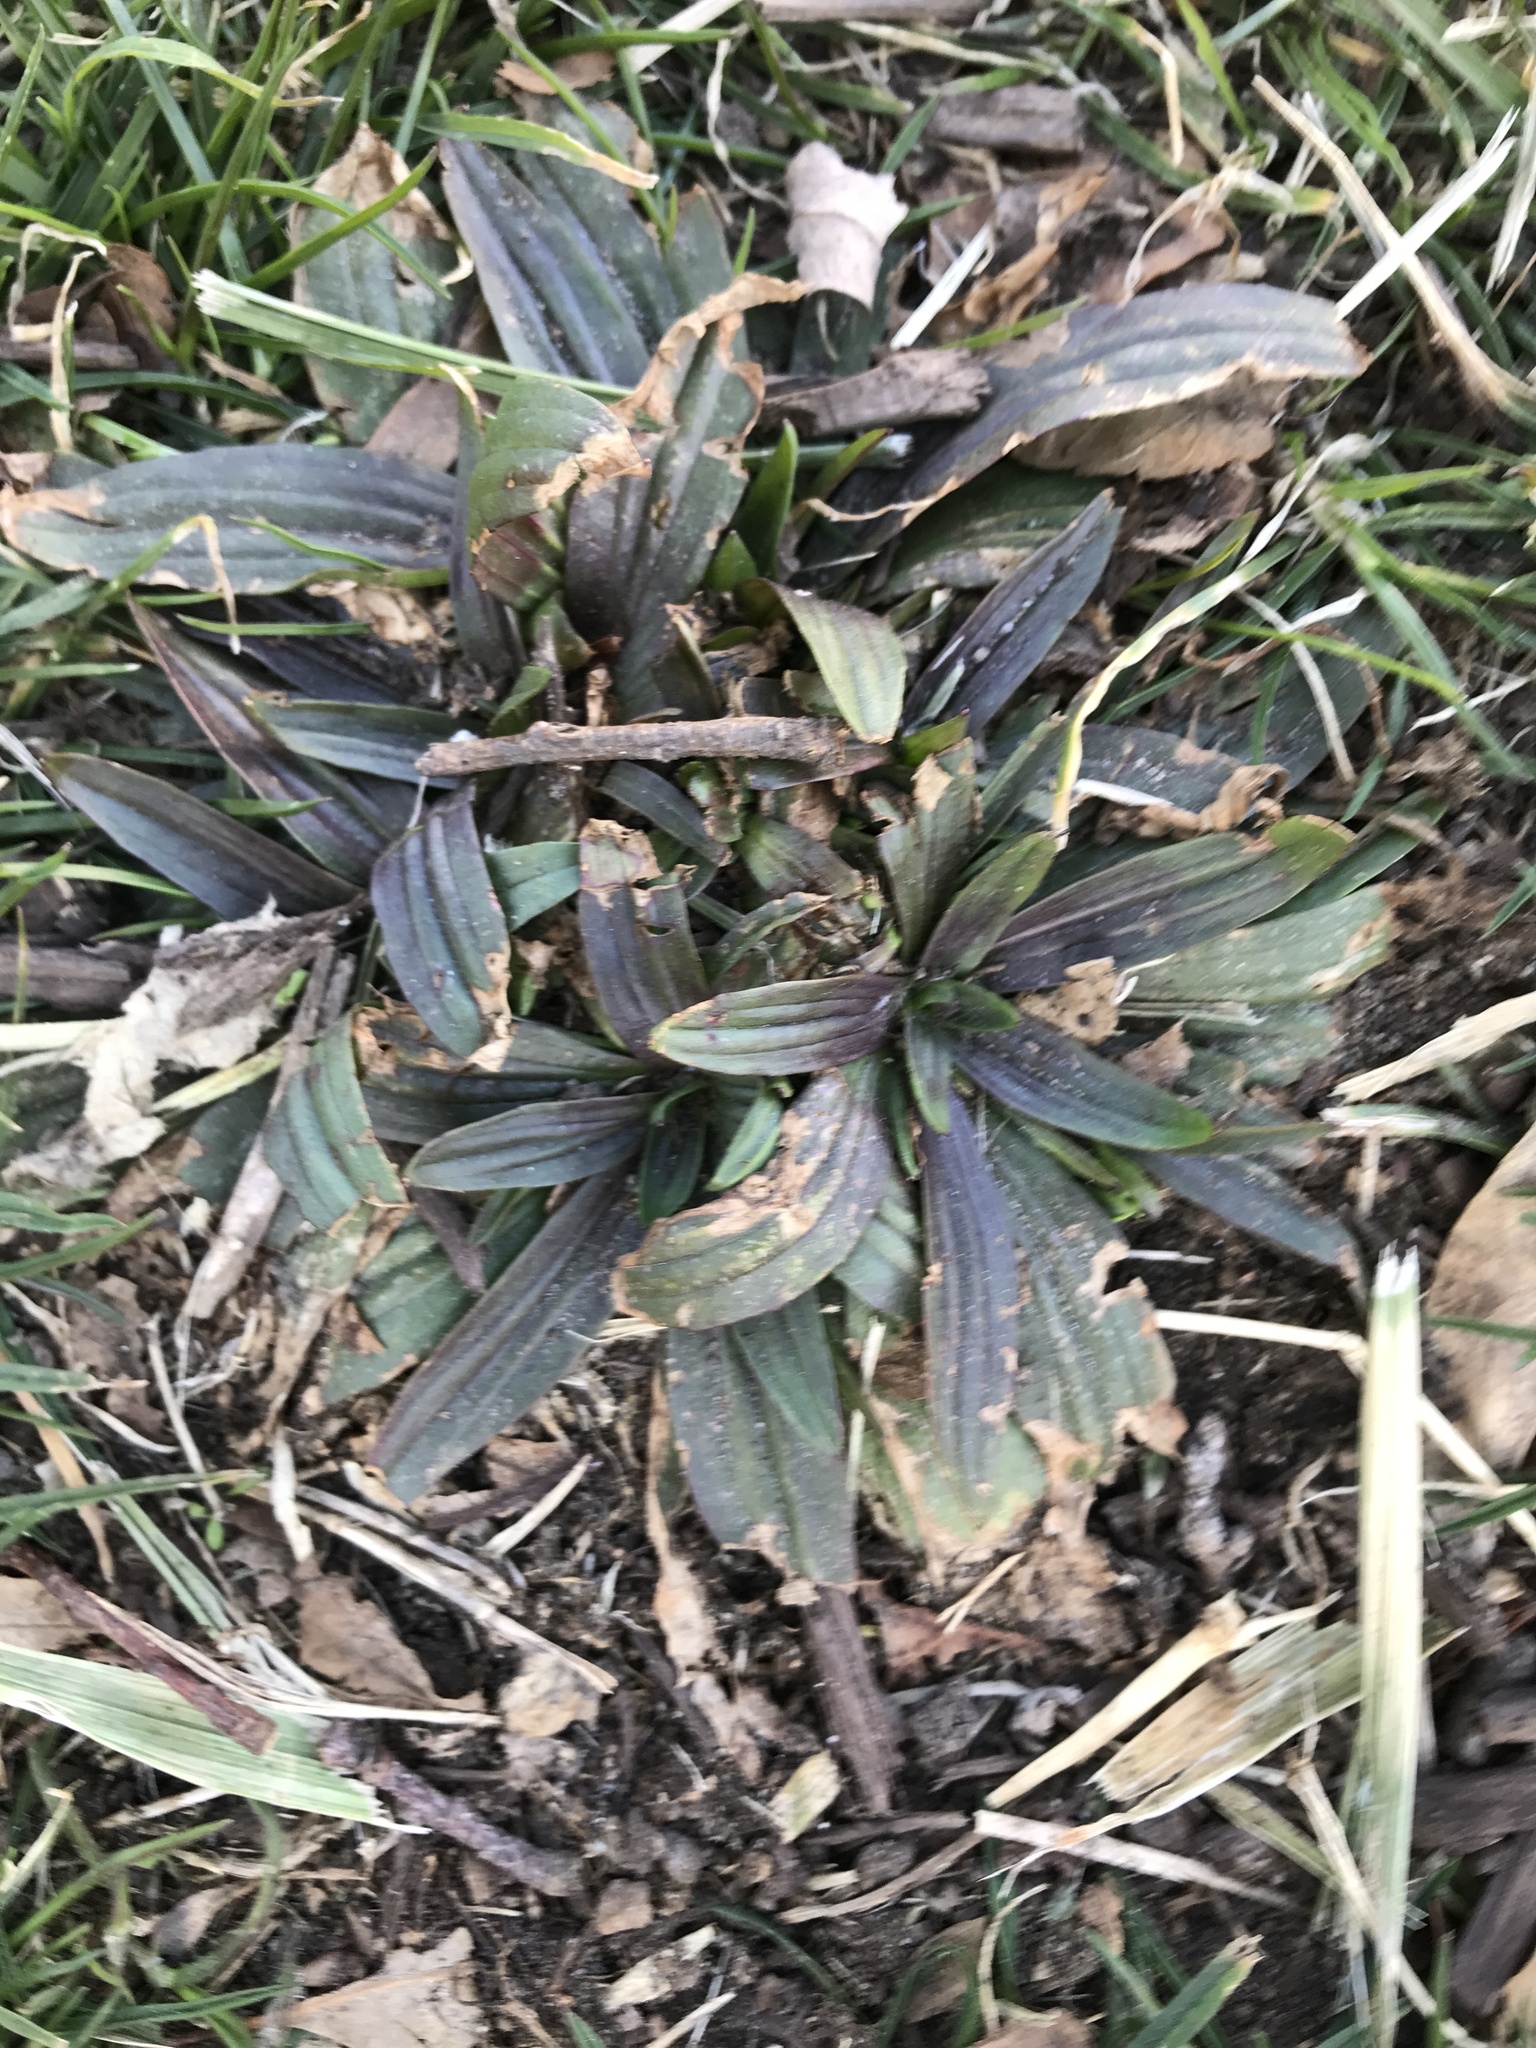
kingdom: Plantae
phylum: Tracheophyta
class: Magnoliopsida
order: Lamiales
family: Plantaginaceae
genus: Plantago
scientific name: Plantago lanceolata
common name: Ribwort plantain
